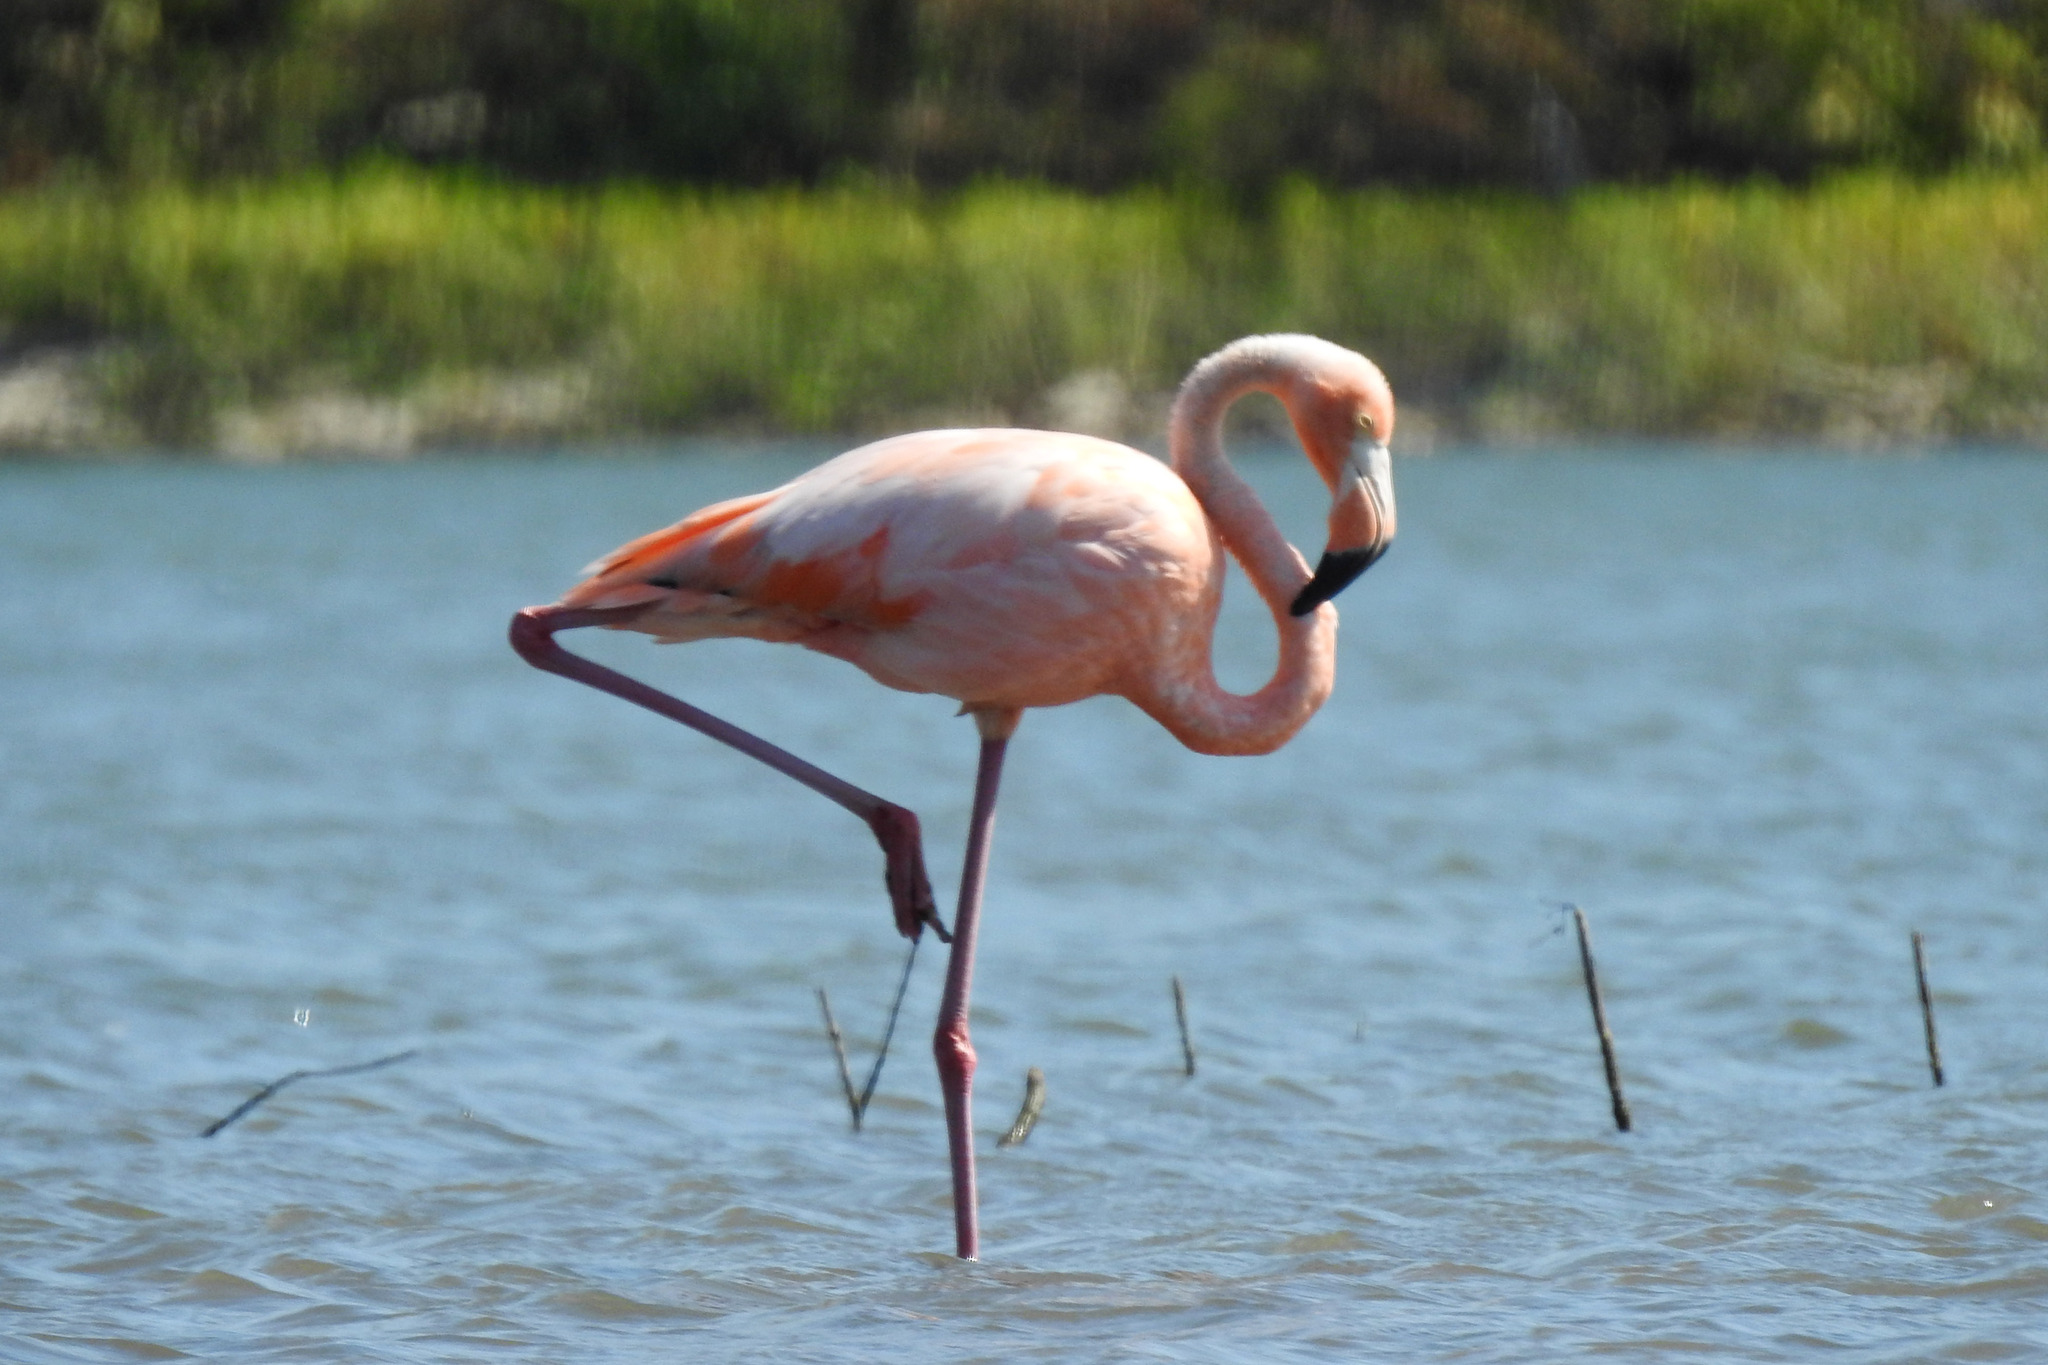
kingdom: Animalia
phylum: Chordata
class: Aves
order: Phoenicopteriformes
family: Phoenicopteridae
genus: Phoenicopterus
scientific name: Phoenicopterus ruber
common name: American flamingo
